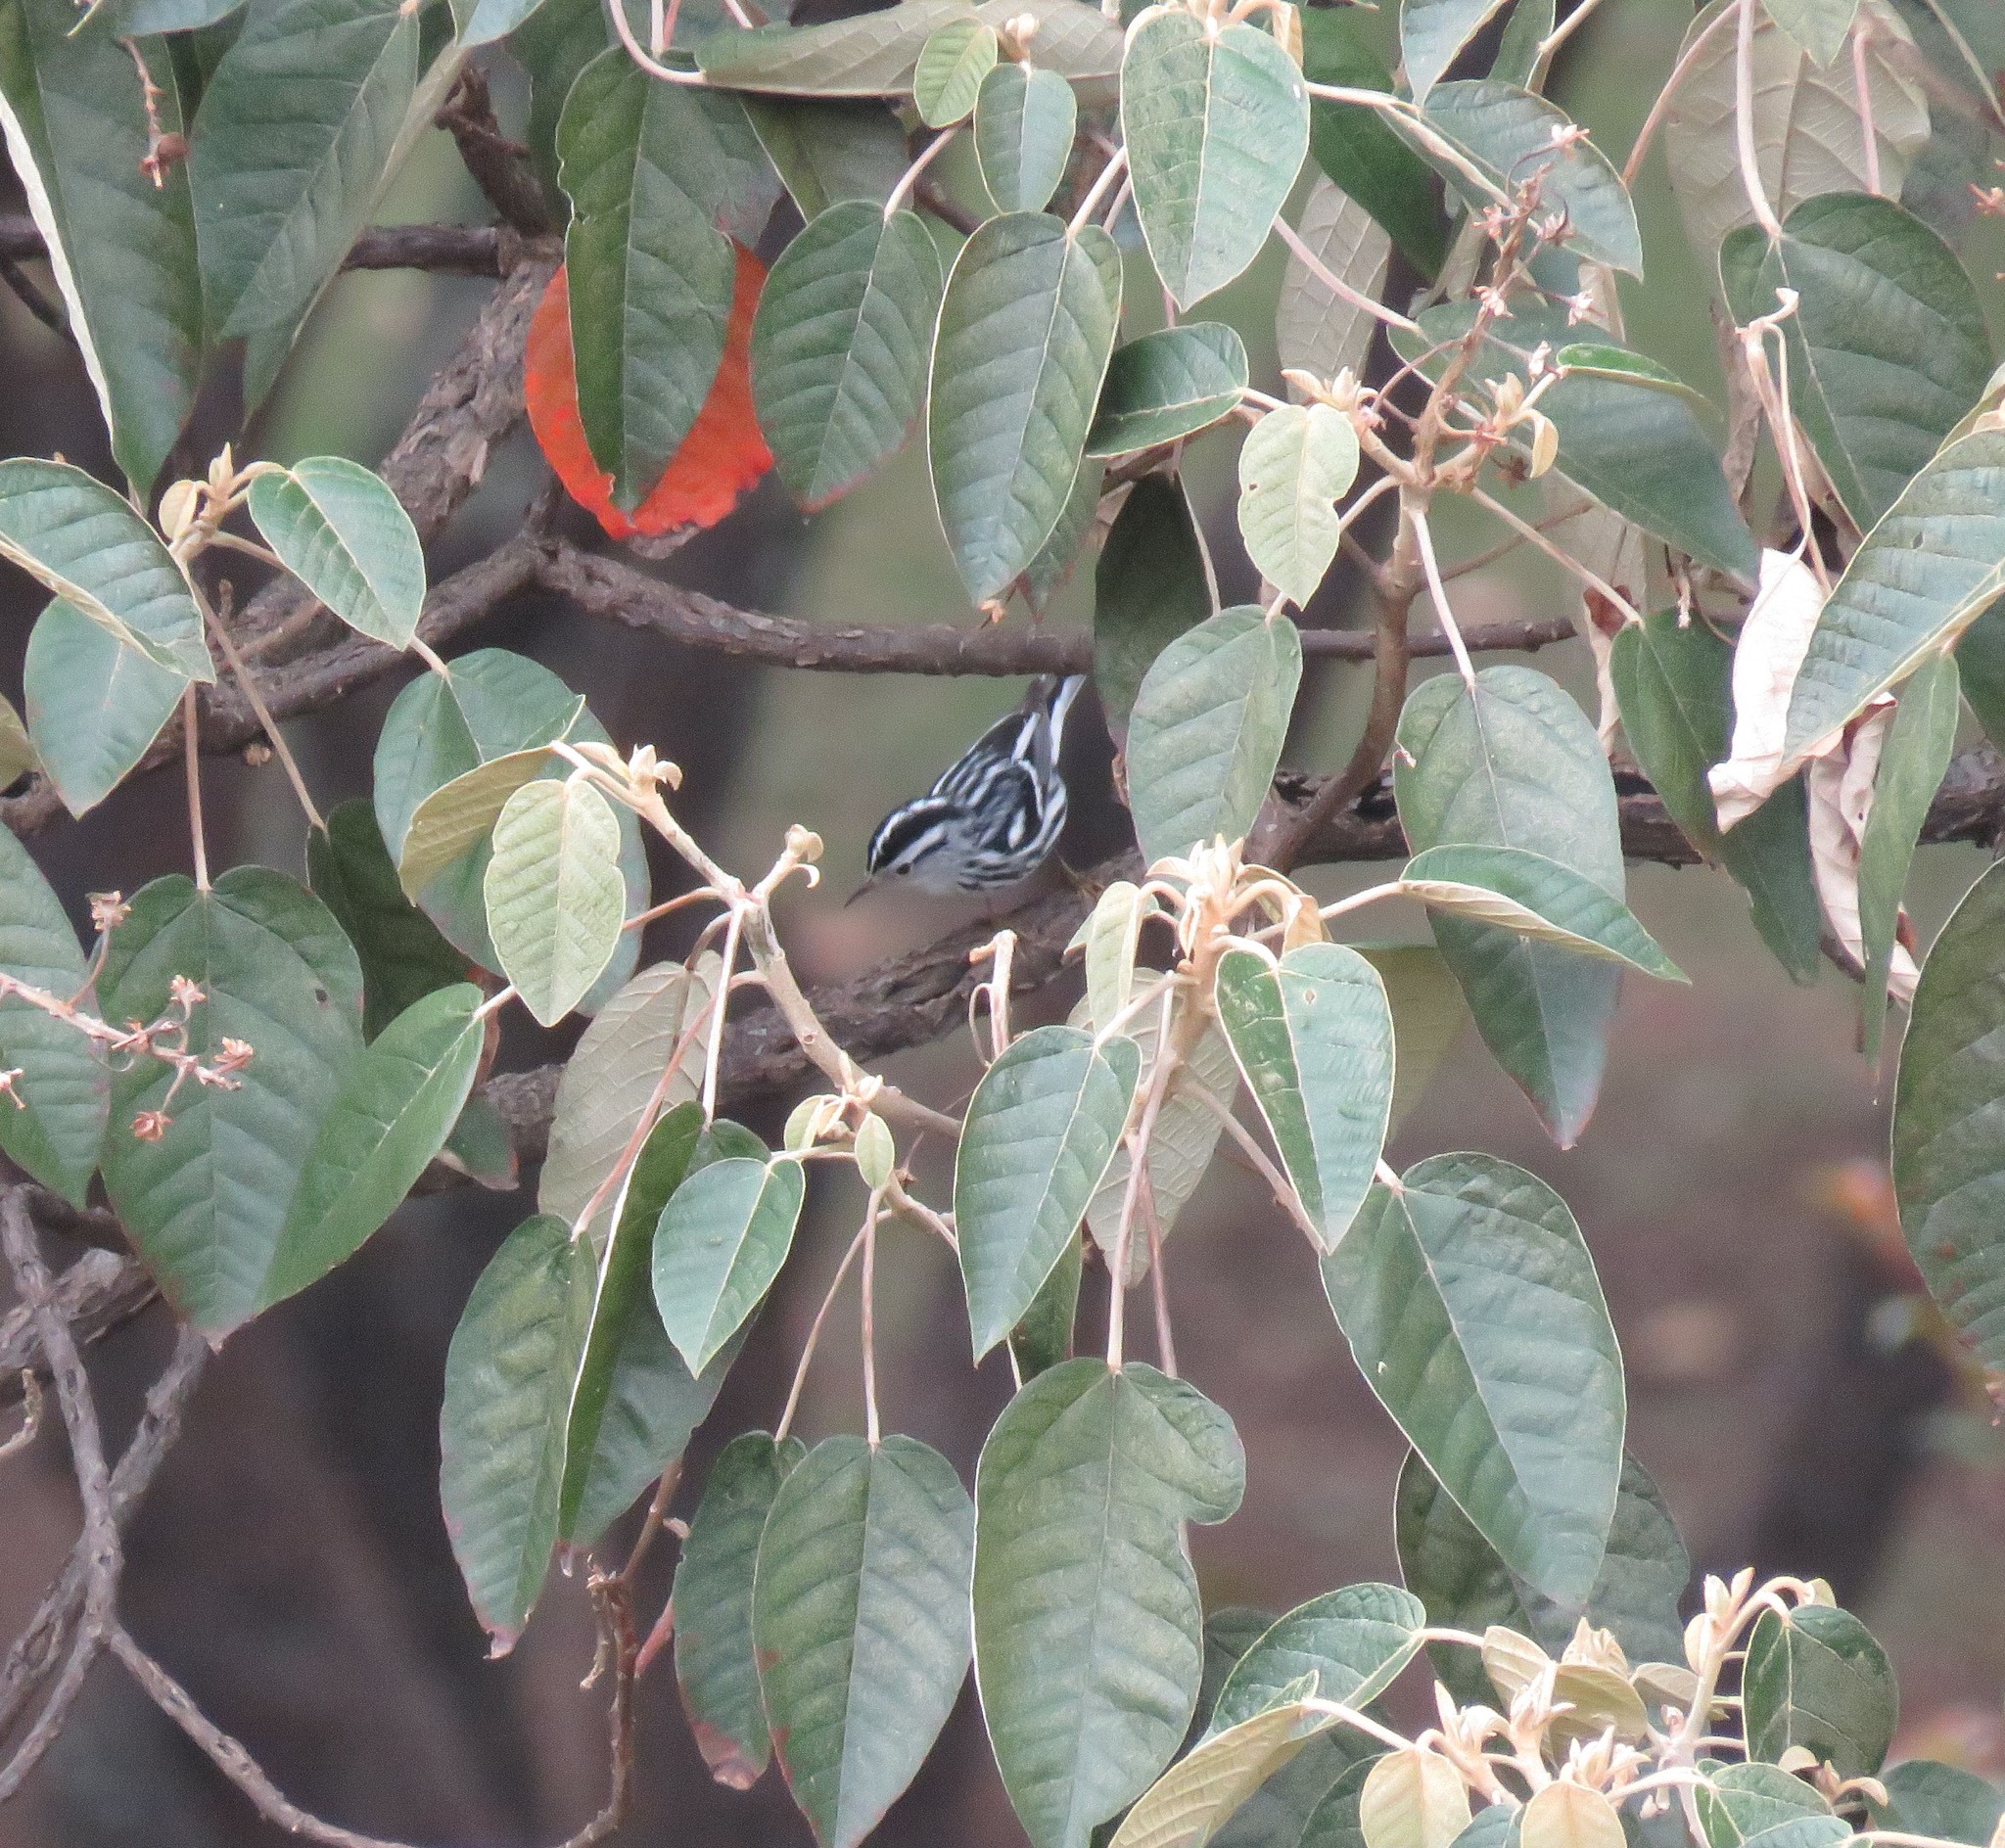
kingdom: Animalia
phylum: Chordata
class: Aves
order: Passeriformes
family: Parulidae
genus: Mniotilta
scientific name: Mniotilta varia
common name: Black-and-white warbler
